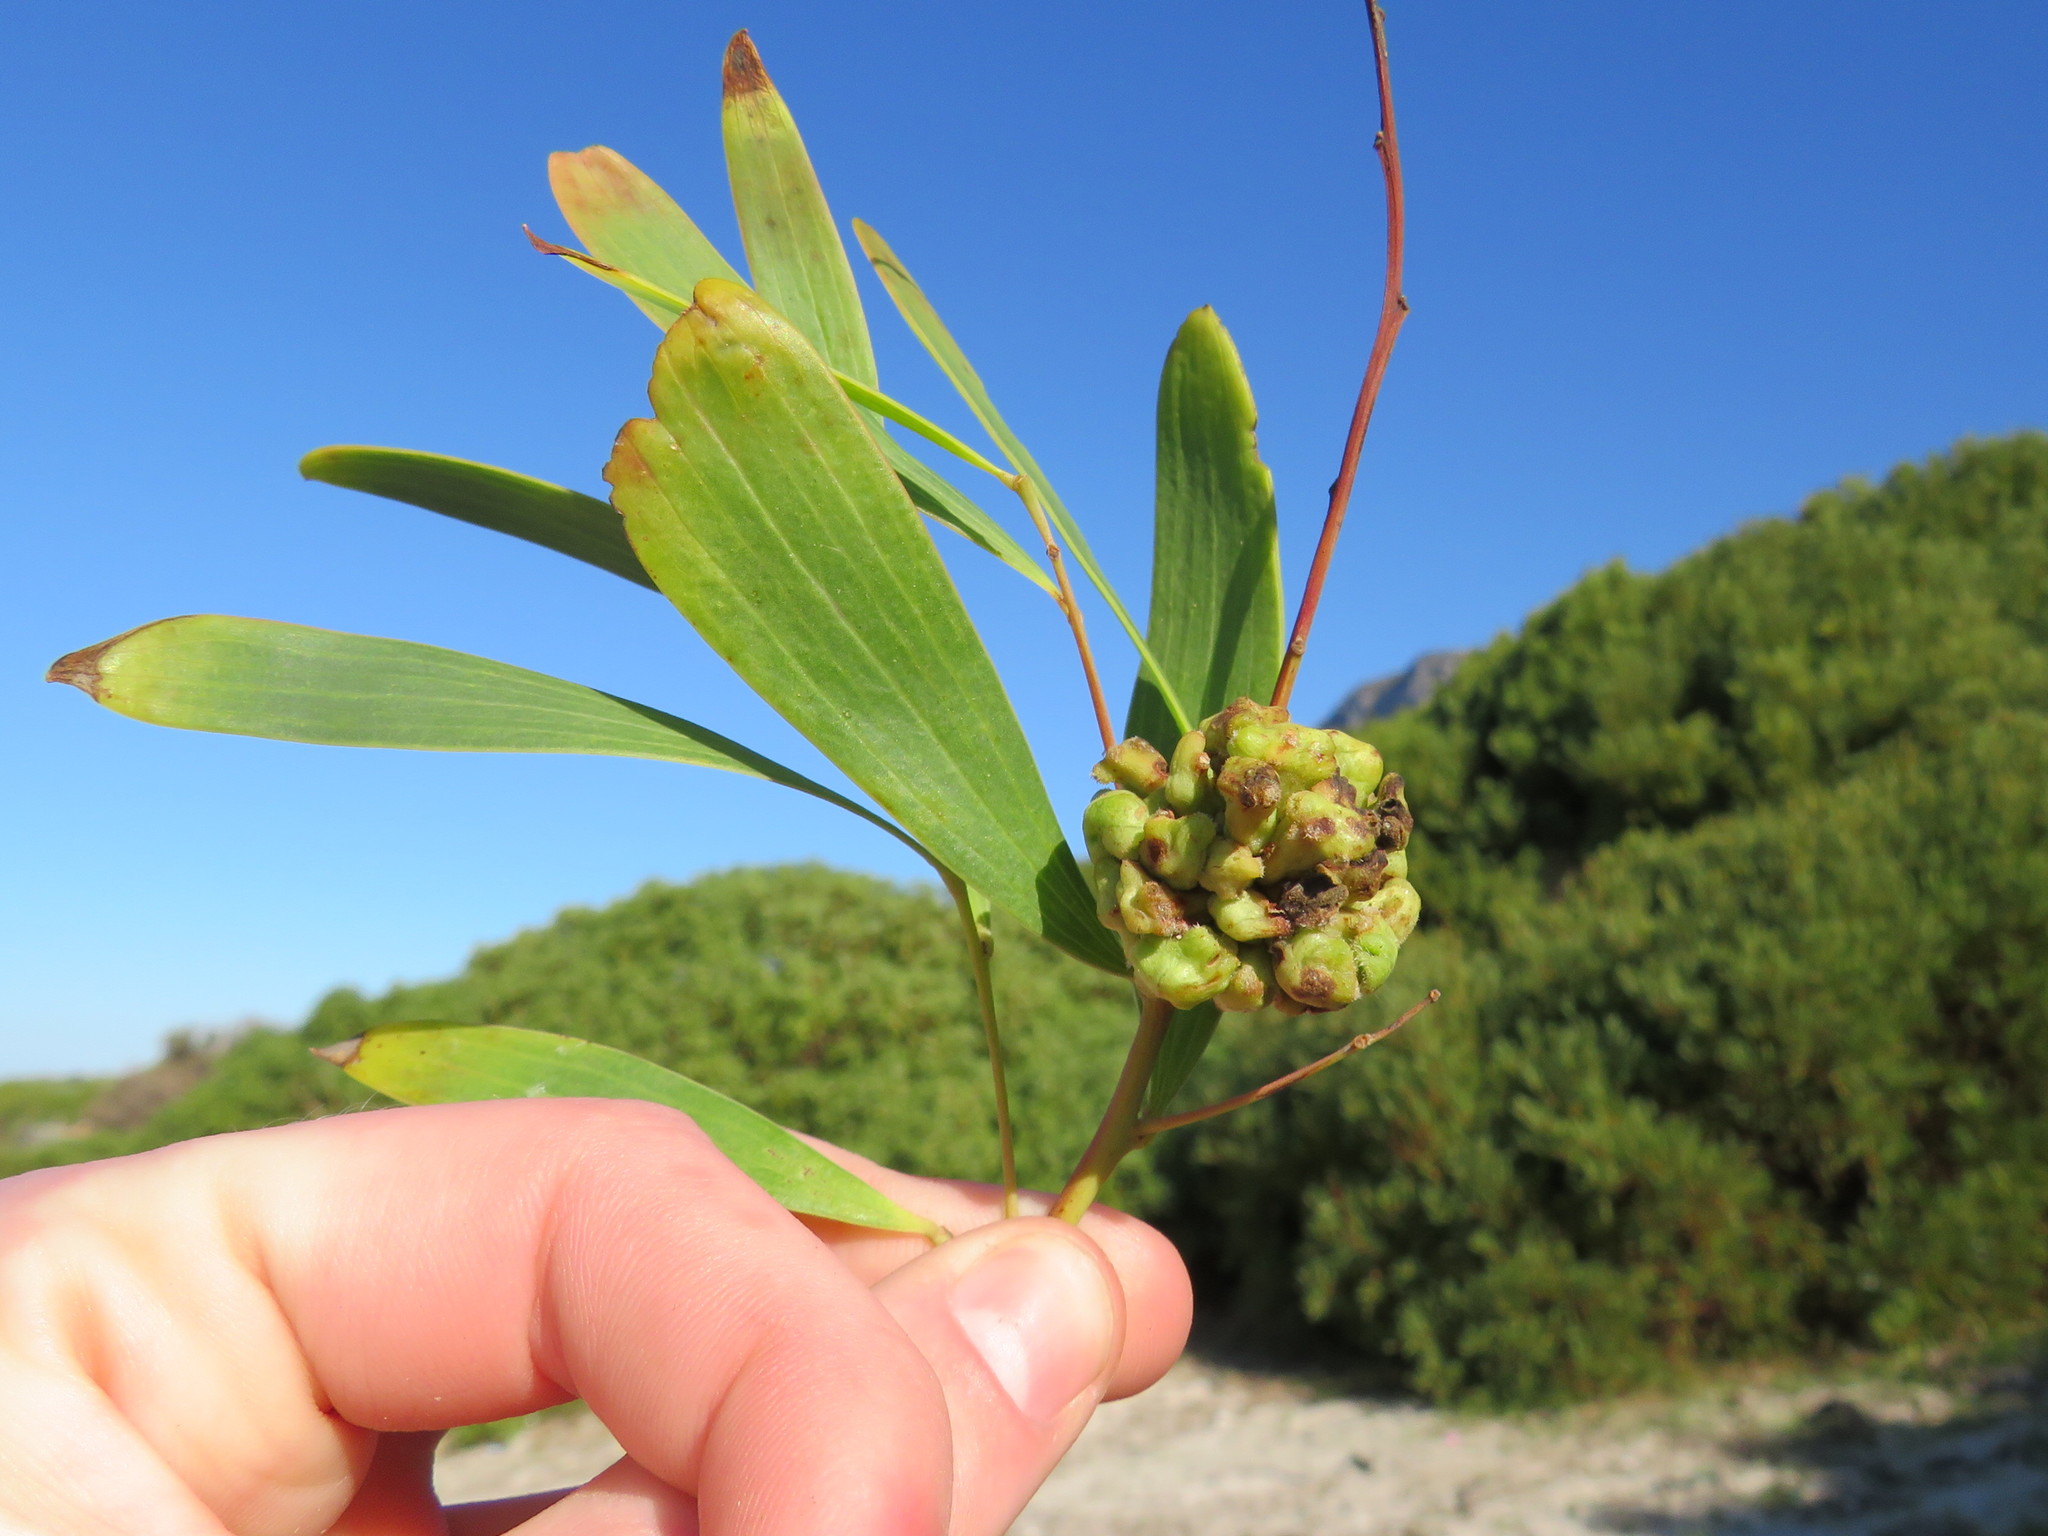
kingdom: Animalia
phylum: Arthropoda
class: Insecta
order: Diptera
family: Cecidomyiidae
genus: Dasineura
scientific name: Dasineura dielsi
